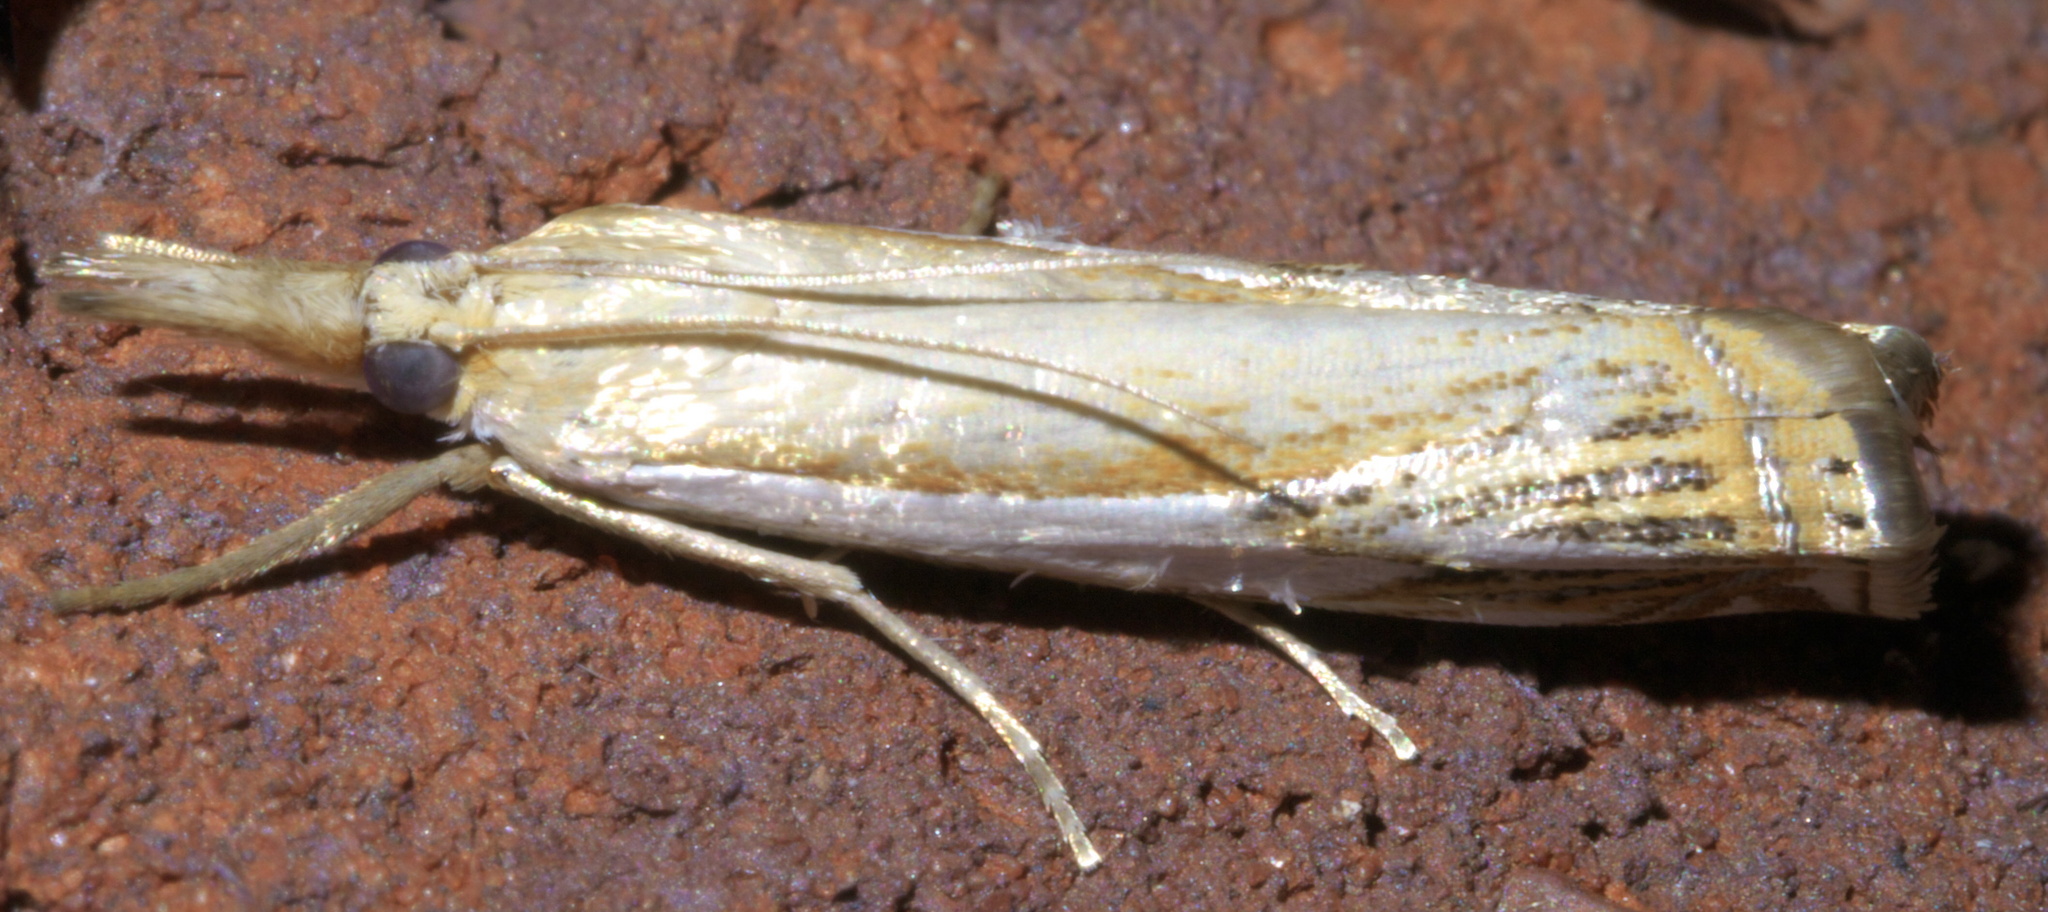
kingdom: Animalia
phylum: Arthropoda
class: Insecta
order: Lepidoptera
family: Crambidae
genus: Crambus
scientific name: Crambus agitatellus
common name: Double-banded grass-veneer
